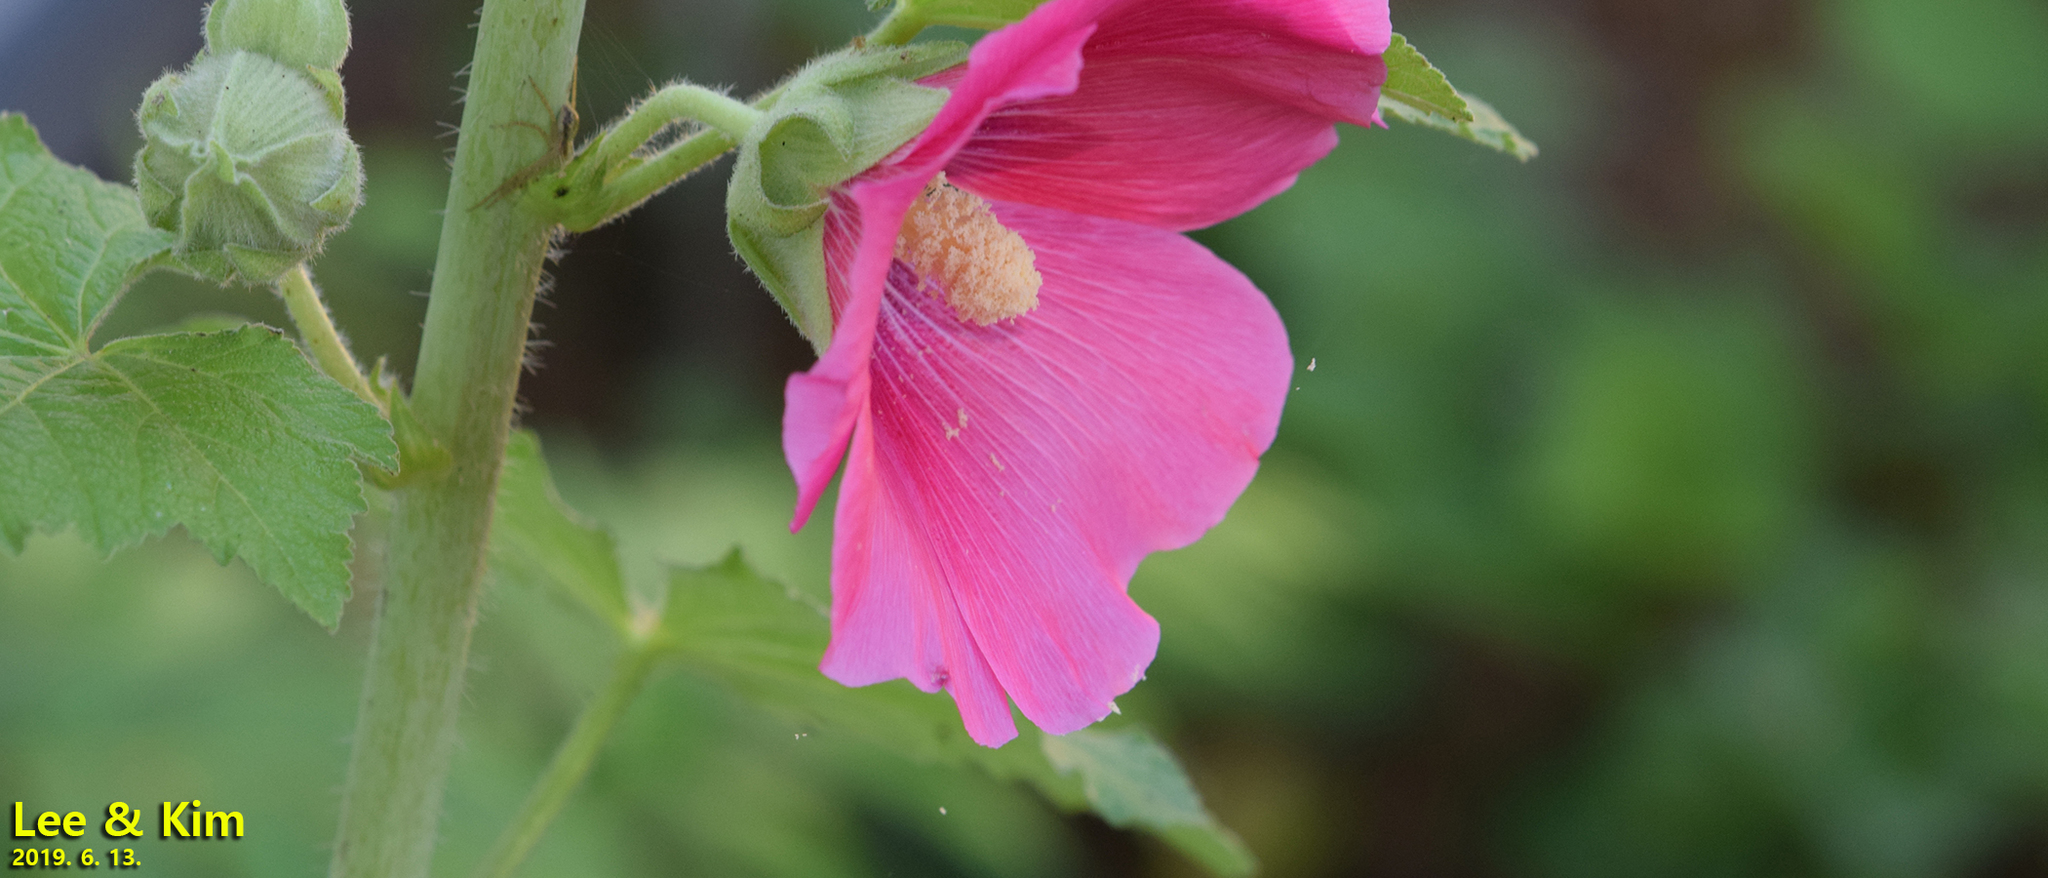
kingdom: Plantae
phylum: Tracheophyta
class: Magnoliopsida
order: Malvales
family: Malvaceae
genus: Alcea
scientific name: Alcea rosea
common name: Hollyhock
